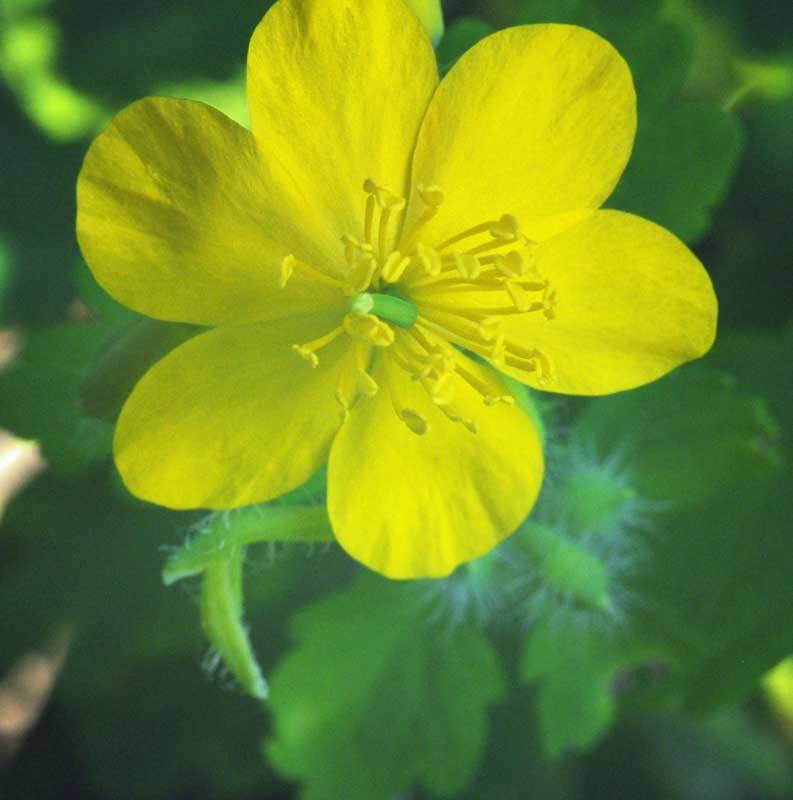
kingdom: Plantae
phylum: Tracheophyta
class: Magnoliopsida
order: Ranunculales
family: Papaveraceae
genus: Chelidonium
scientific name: Chelidonium majus
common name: Greater celandine
